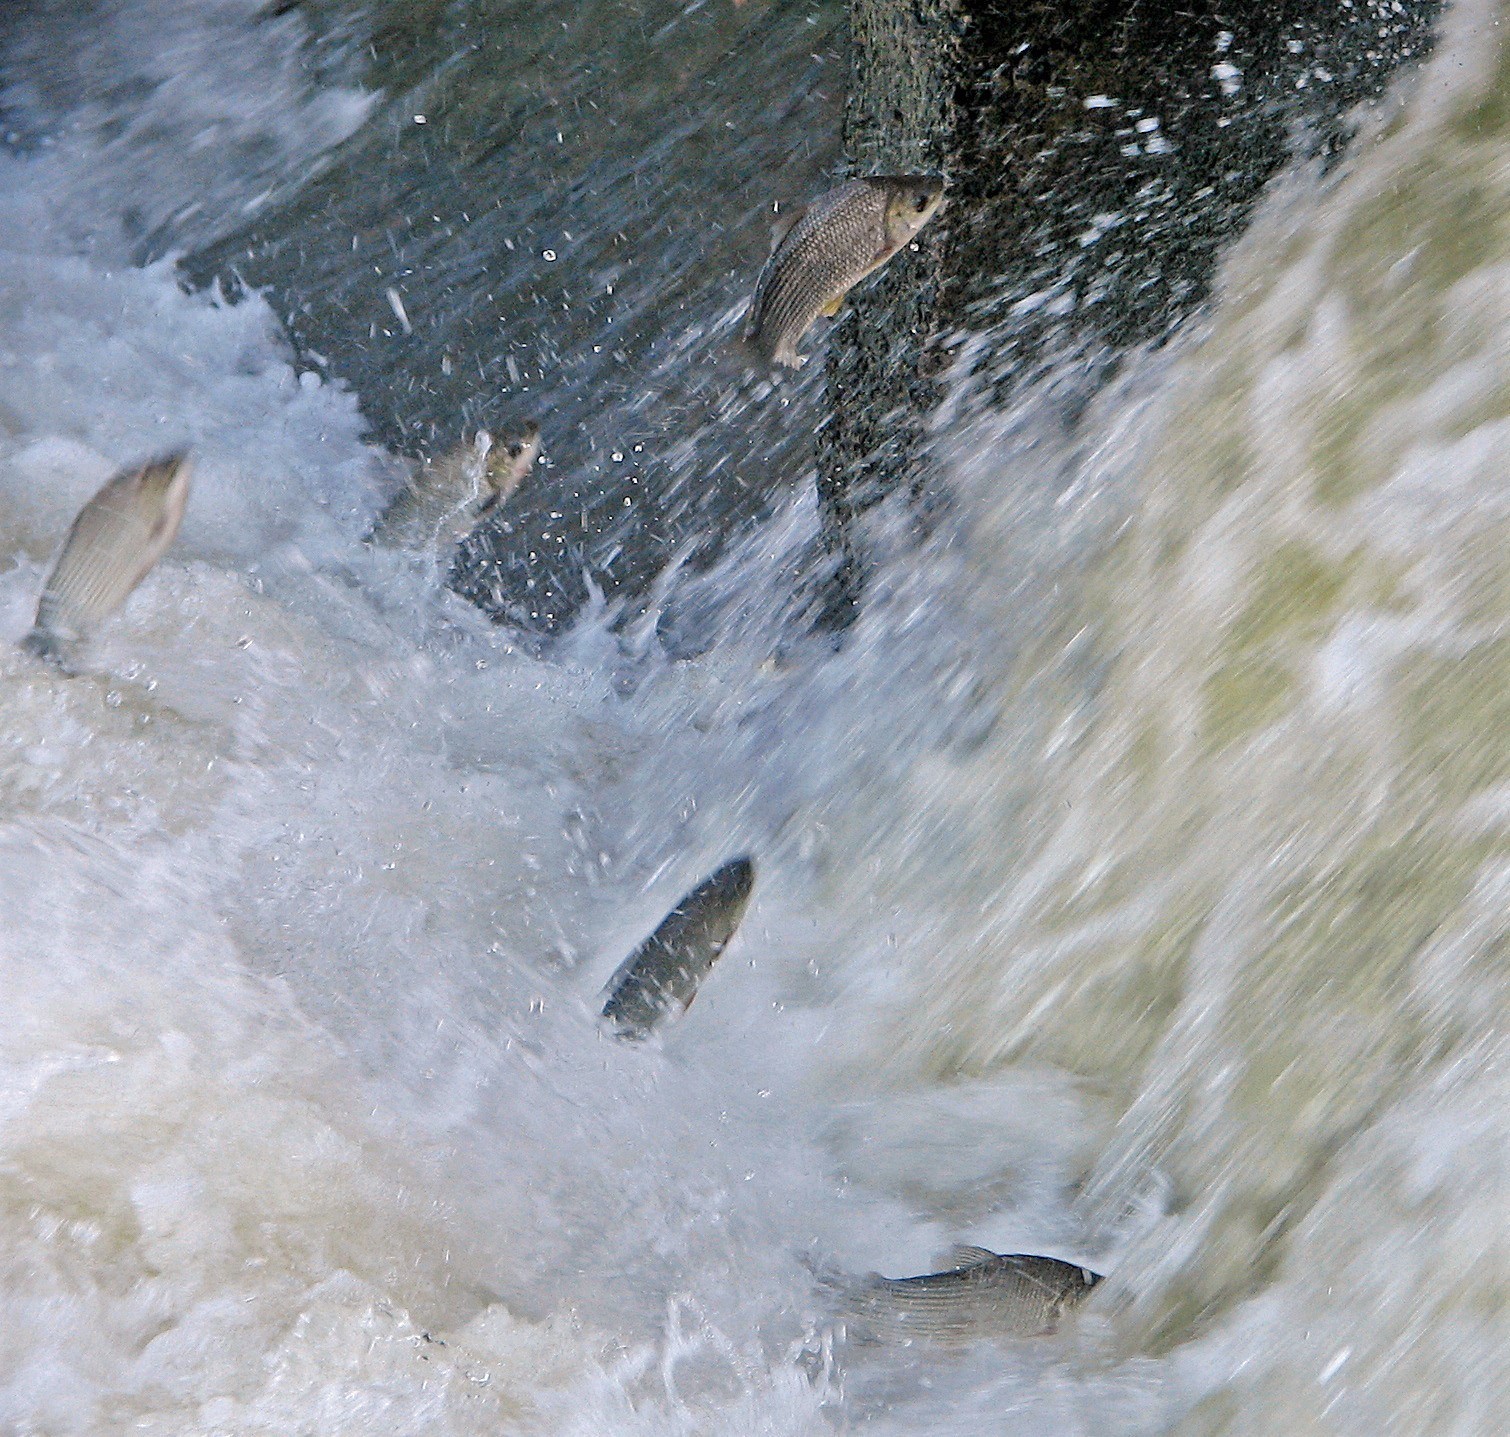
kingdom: Animalia
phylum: Chordata
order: Characiformes
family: Prochilodontidae
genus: Prochilodus
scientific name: Prochilodus lineatus
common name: Curimbata
